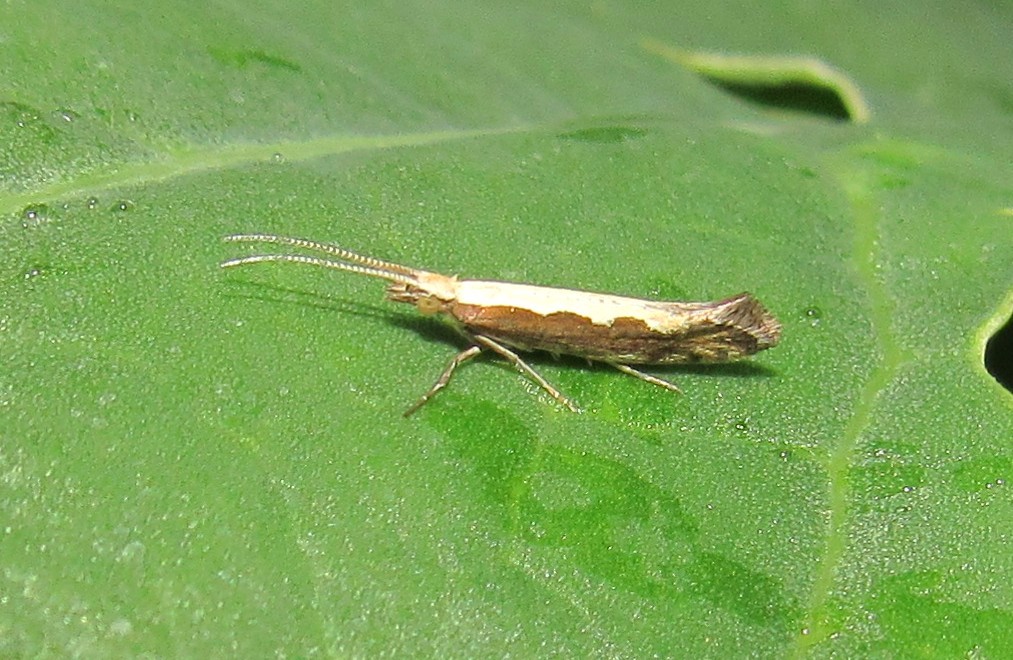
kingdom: Animalia
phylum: Arthropoda
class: Insecta
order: Lepidoptera
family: Plutellidae
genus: Plutella
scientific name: Plutella xylostella
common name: Diamond-back moth
